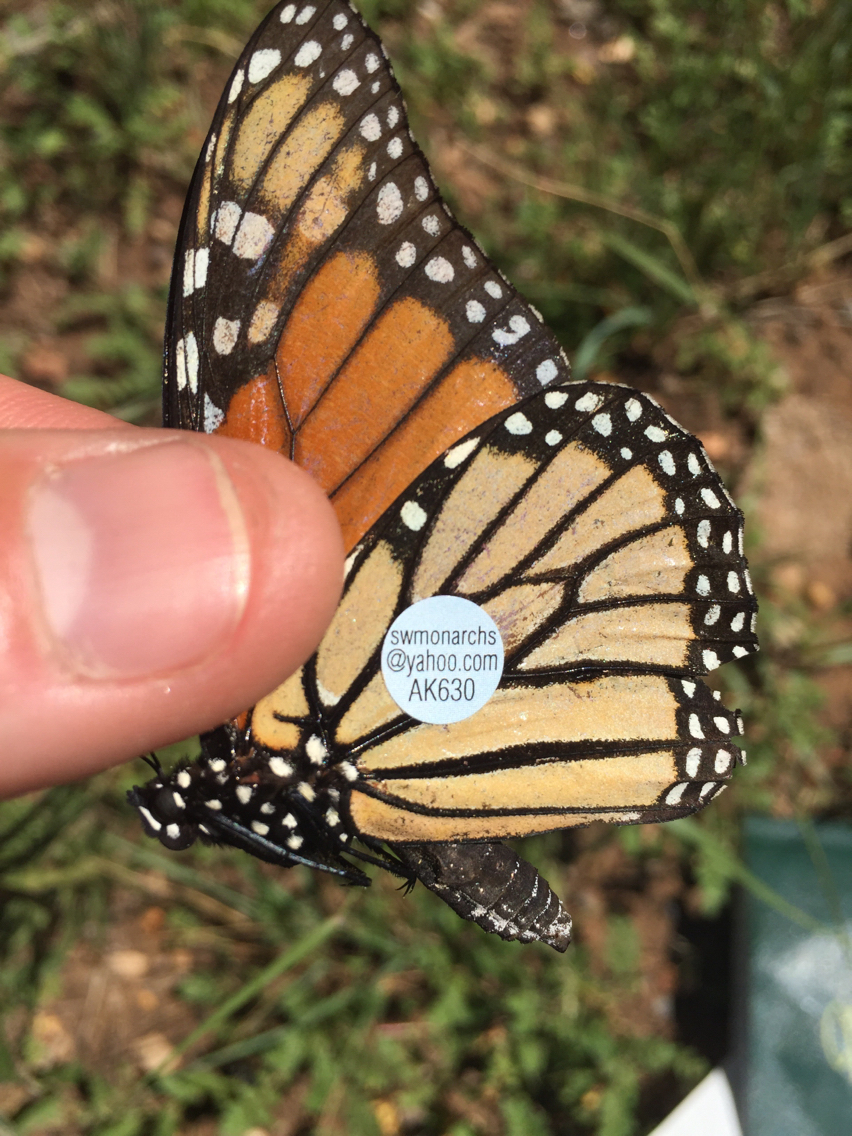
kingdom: Animalia
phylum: Arthropoda
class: Insecta
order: Lepidoptera
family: Nymphalidae
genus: Danaus
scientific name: Danaus plexippus
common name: Monarch
